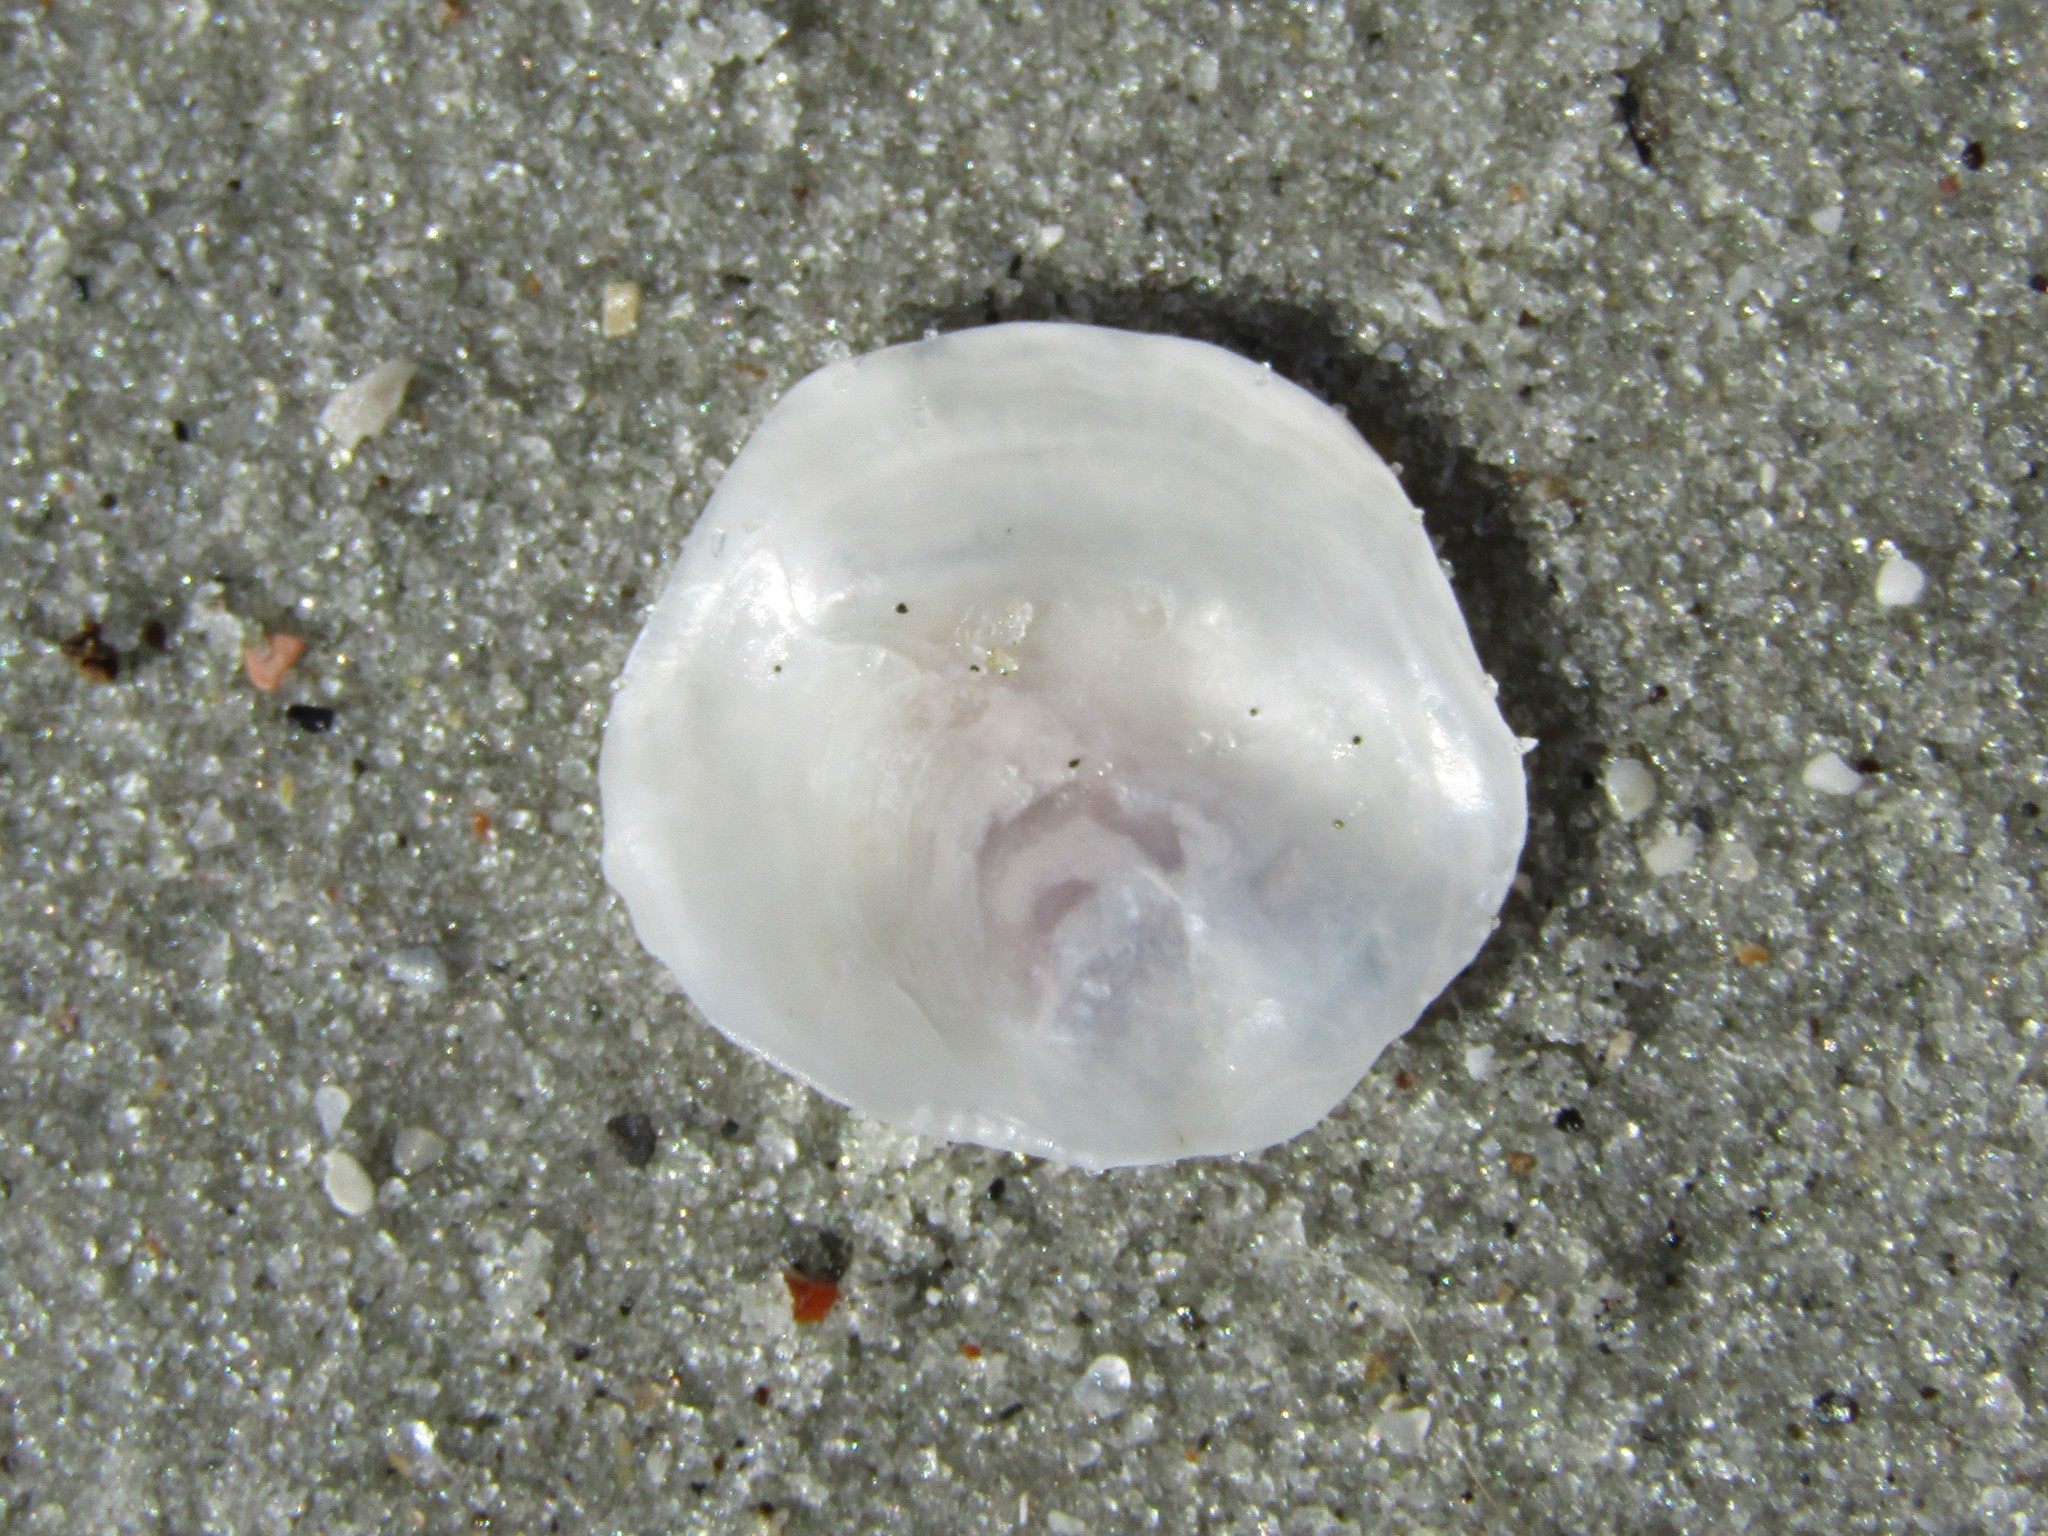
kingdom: Animalia
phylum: Mollusca
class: Bivalvia
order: Pectinida
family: Anomiidae
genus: Anomia
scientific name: Anomia simplex
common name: Common jingle shell
